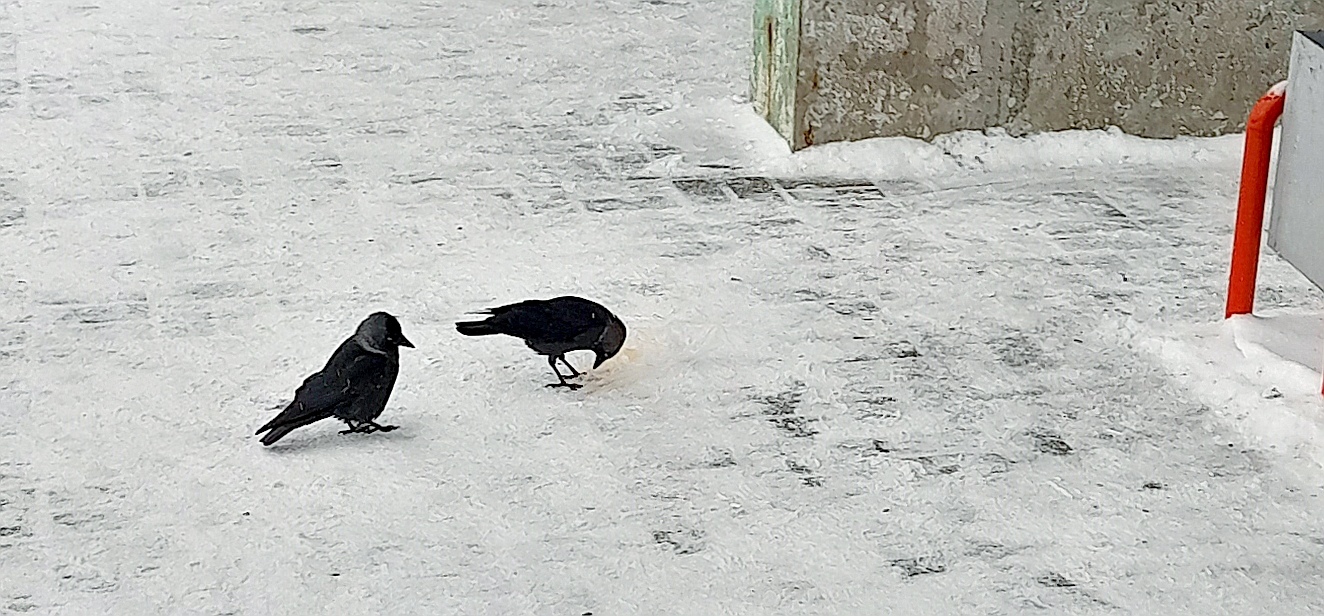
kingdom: Animalia
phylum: Chordata
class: Aves
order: Passeriformes
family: Corvidae
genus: Coloeus
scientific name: Coloeus monedula
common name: Western jackdaw
